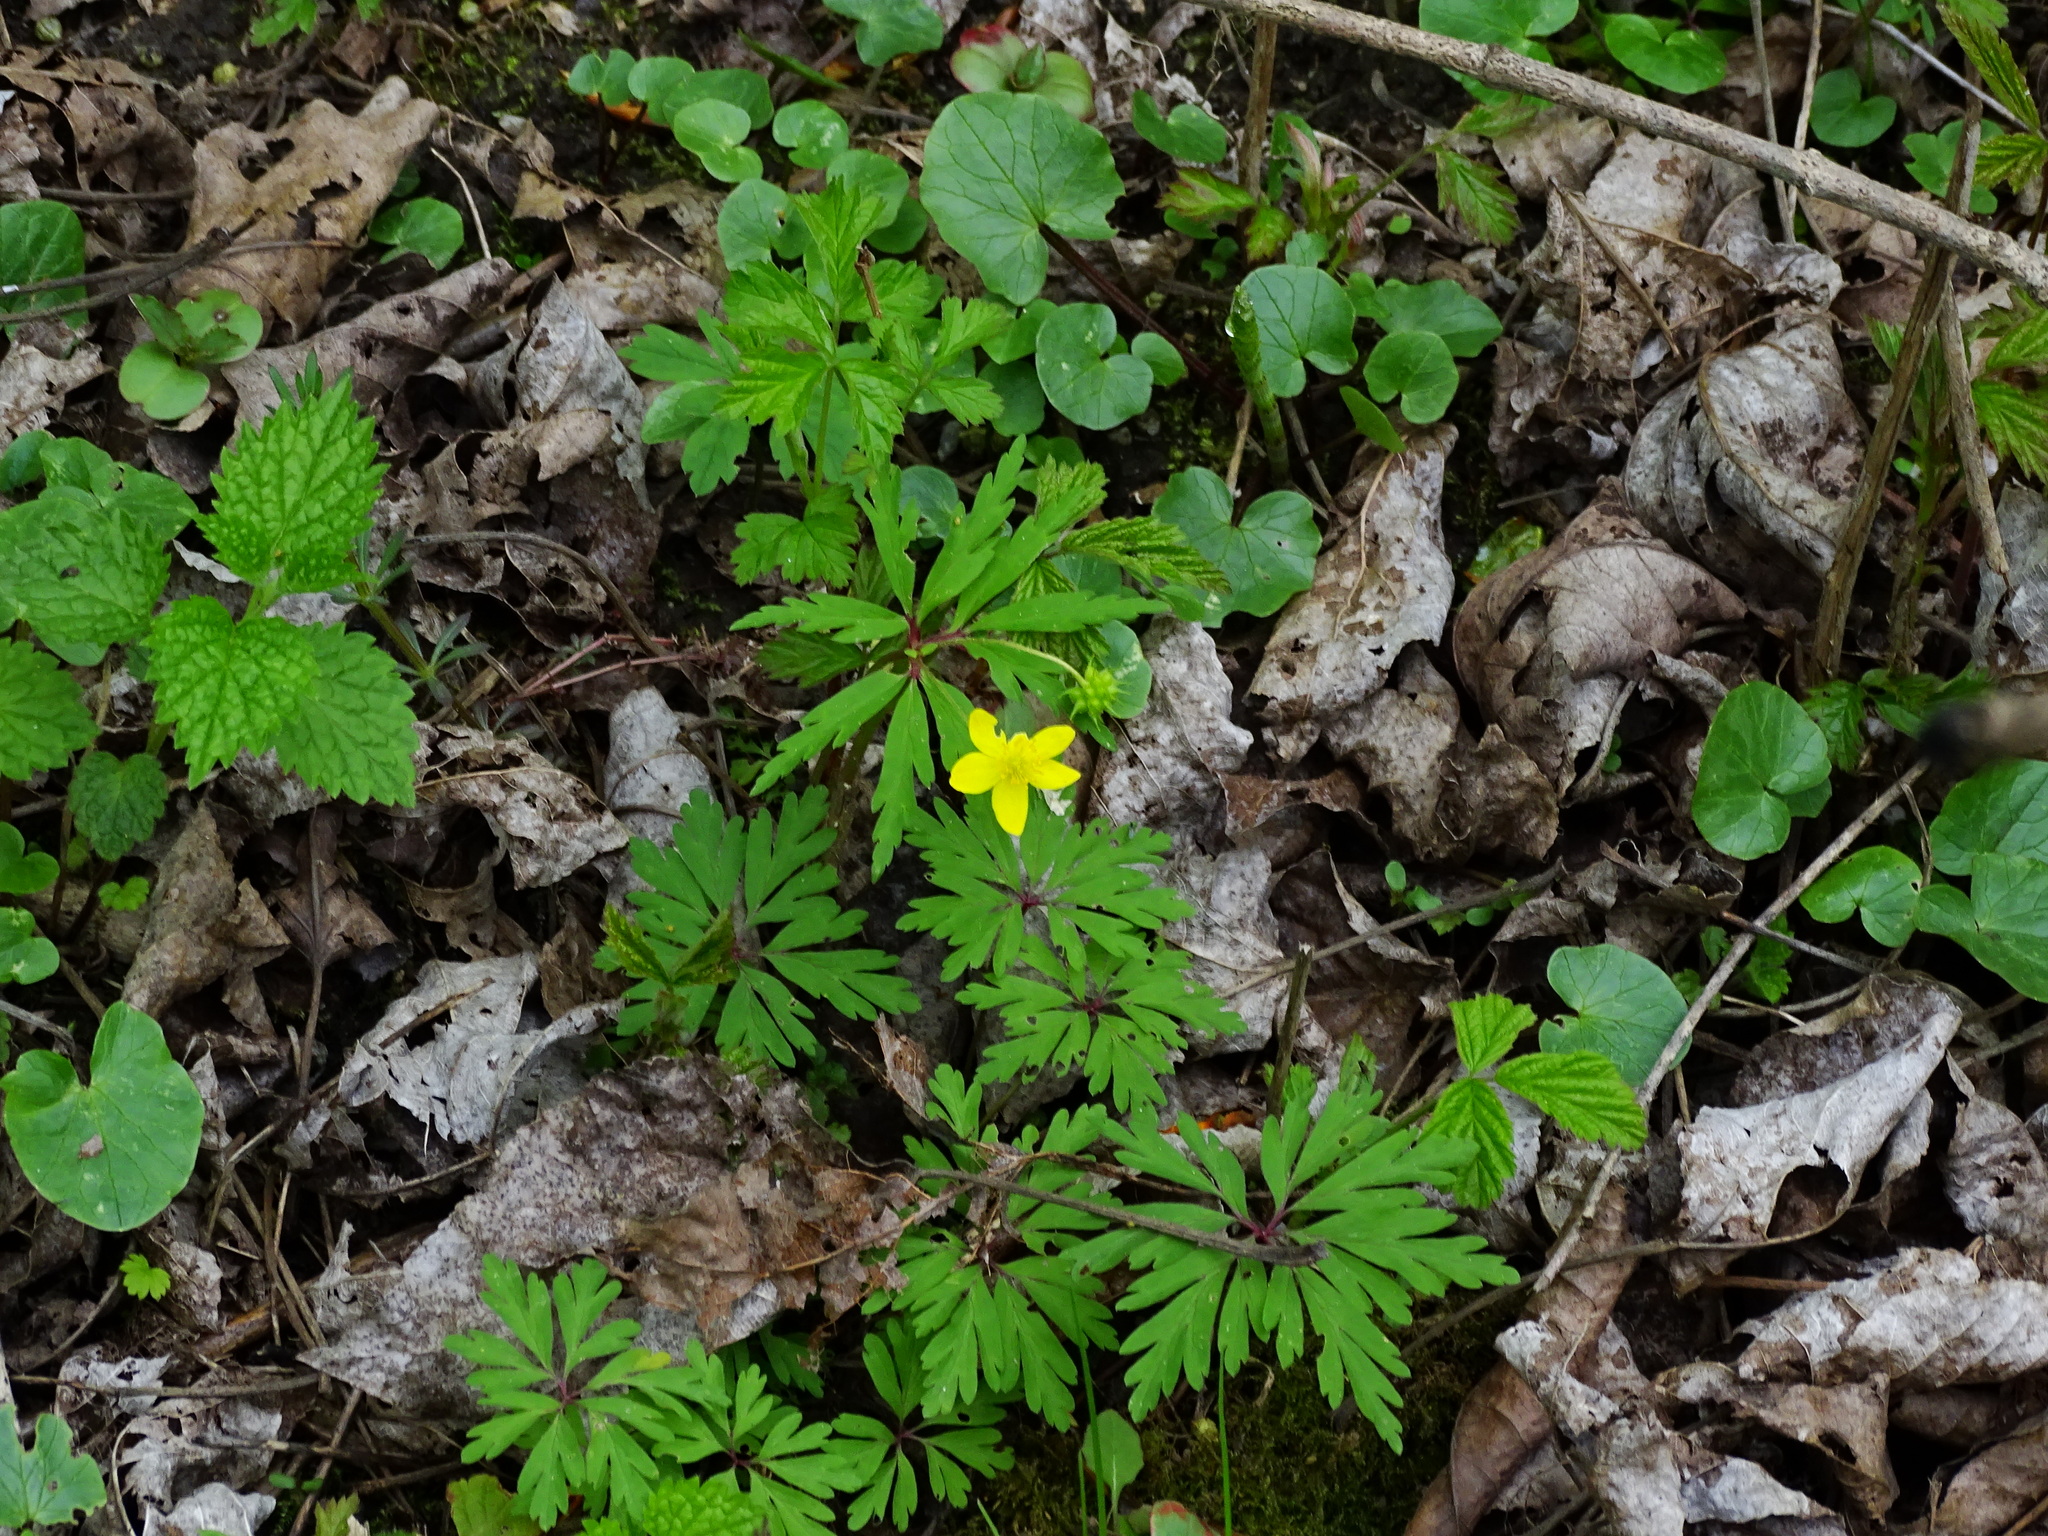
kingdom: Plantae
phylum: Tracheophyta
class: Magnoliopsida
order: Ranunculales
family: Ranunculaceae
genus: Anemone
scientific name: Anemone ranunculoides
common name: Yellow anemone
